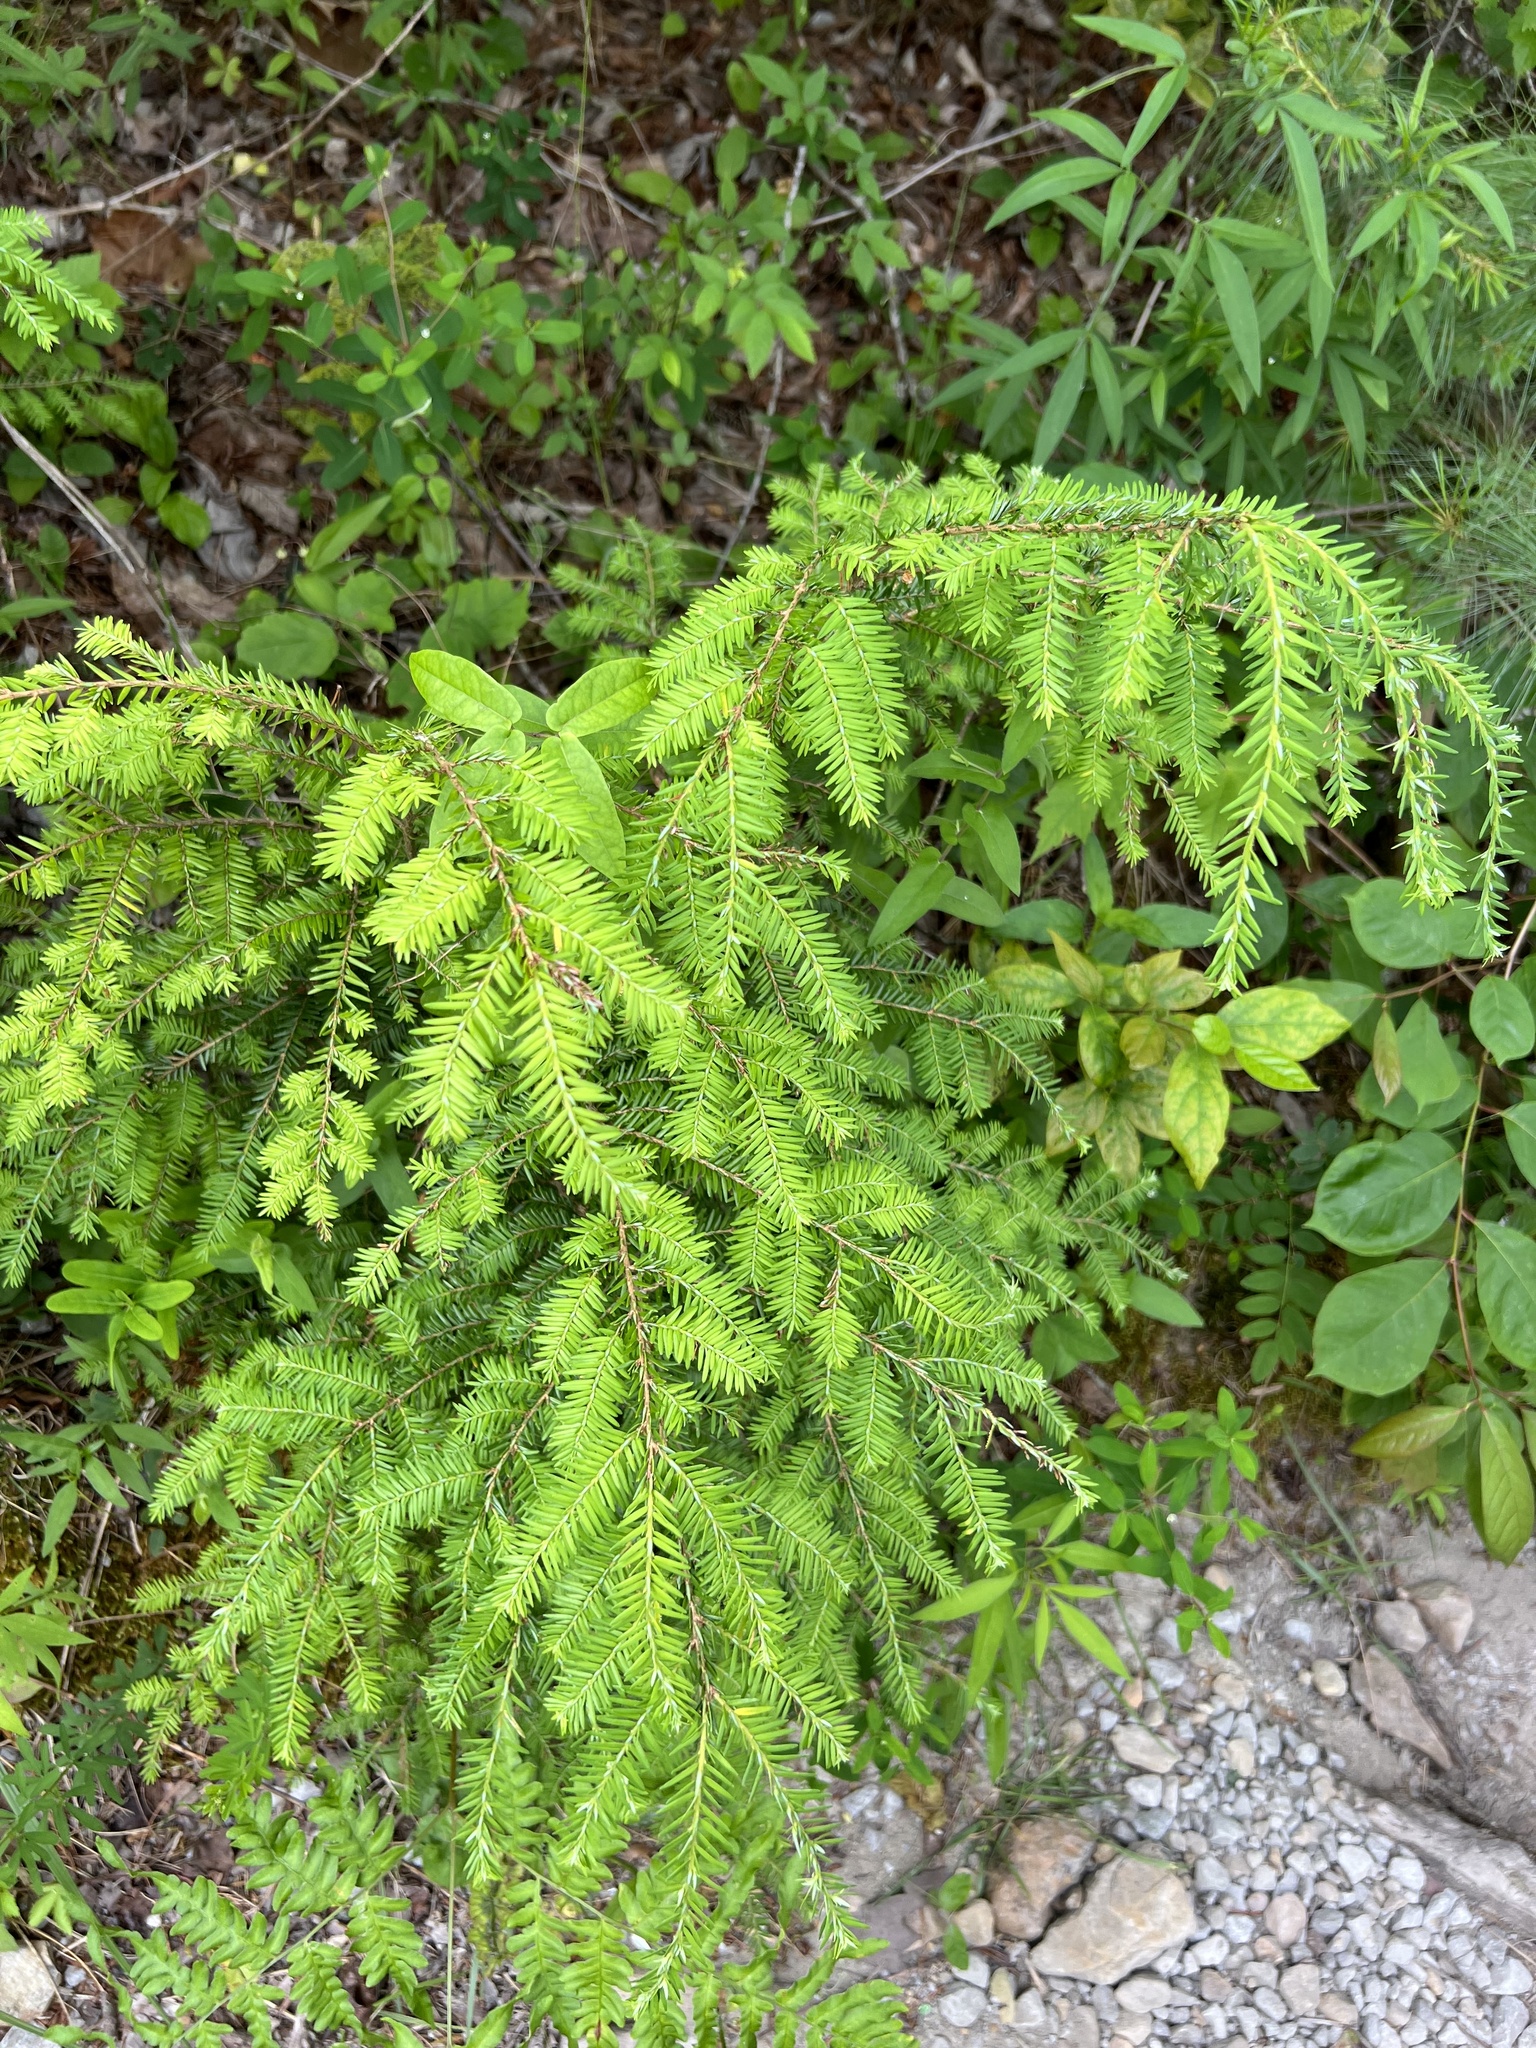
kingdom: Plantae
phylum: Tracheophyta
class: Pinopsida
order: Pinales
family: Pinaceae
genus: Tsuga
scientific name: Tsuga canadensis
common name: Eastern hemlock
